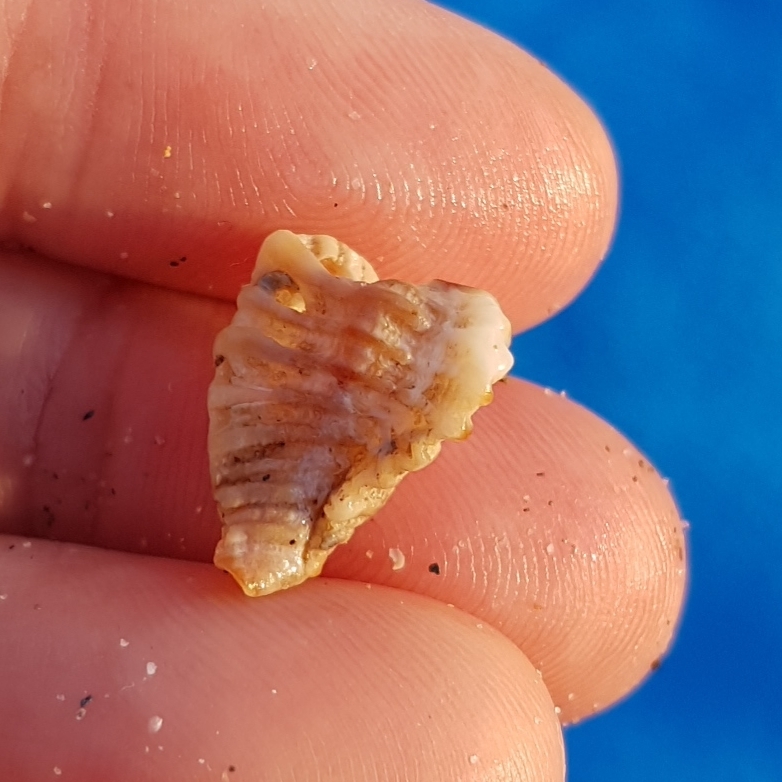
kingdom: Animalia
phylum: Mollusca
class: Gastropoda
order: Neogastropoda
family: Muricidae
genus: Ocenebra
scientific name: Ocenebra erinaceus
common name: European sting winkle
